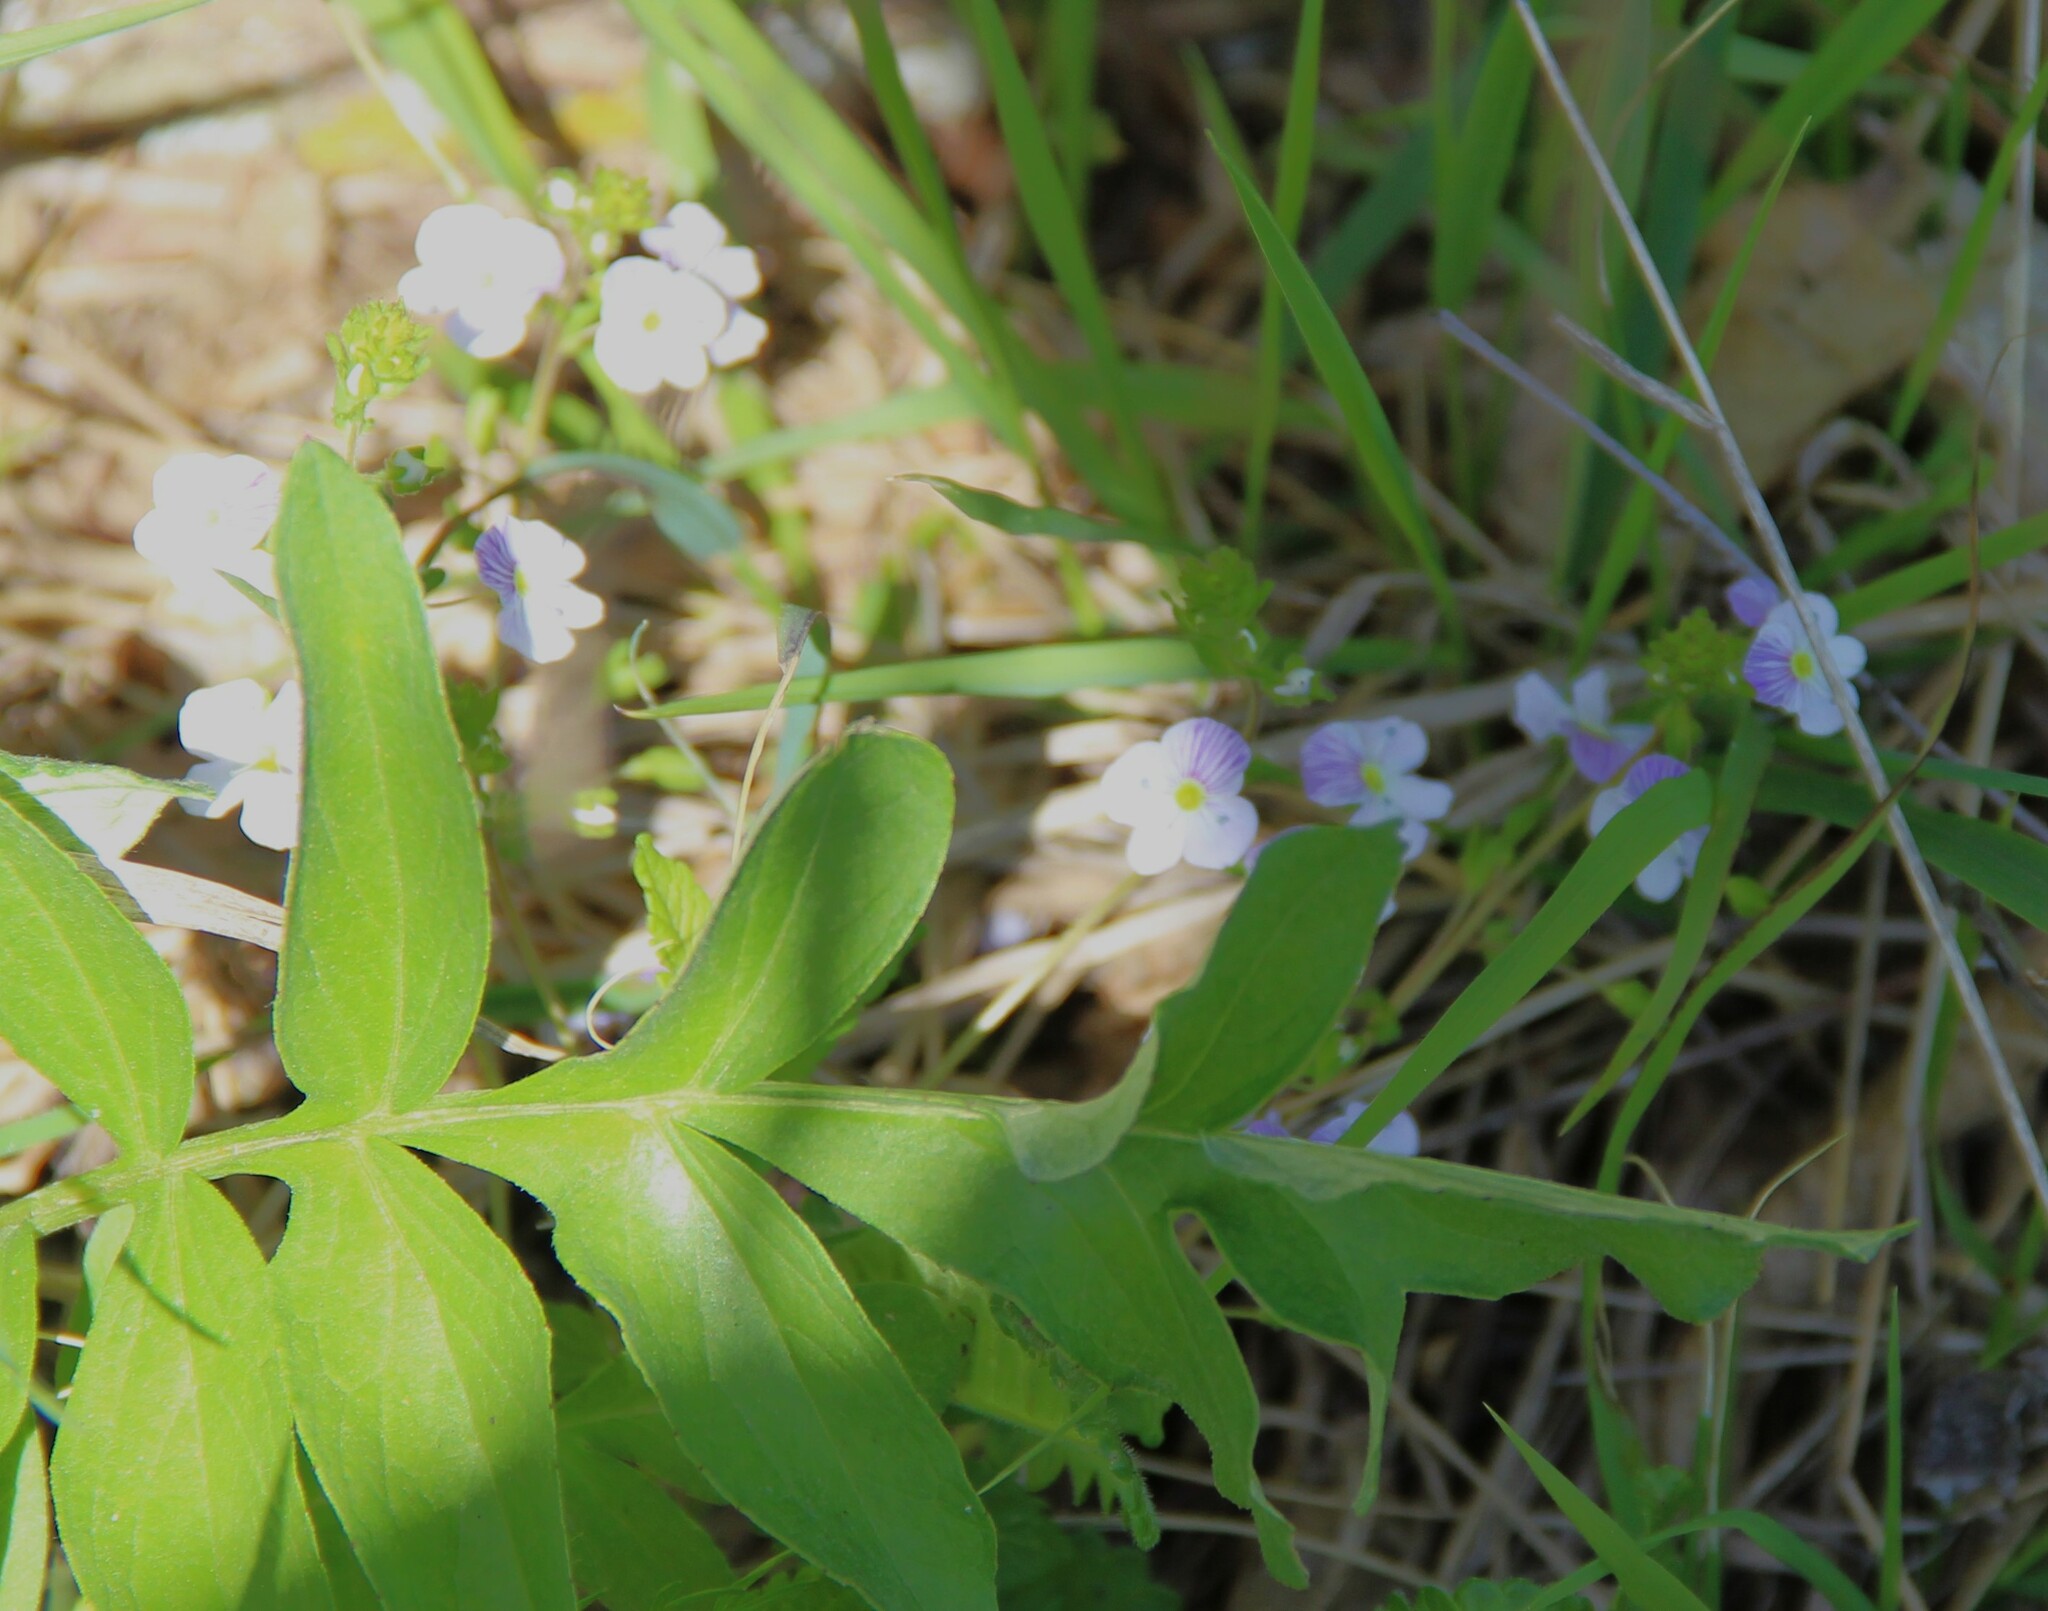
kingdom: Plantae
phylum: Tracheophyta
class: Magnoliopsida
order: Lamiales
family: Plantaginaceae
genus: Veronica
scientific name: Veronica peduncularis
